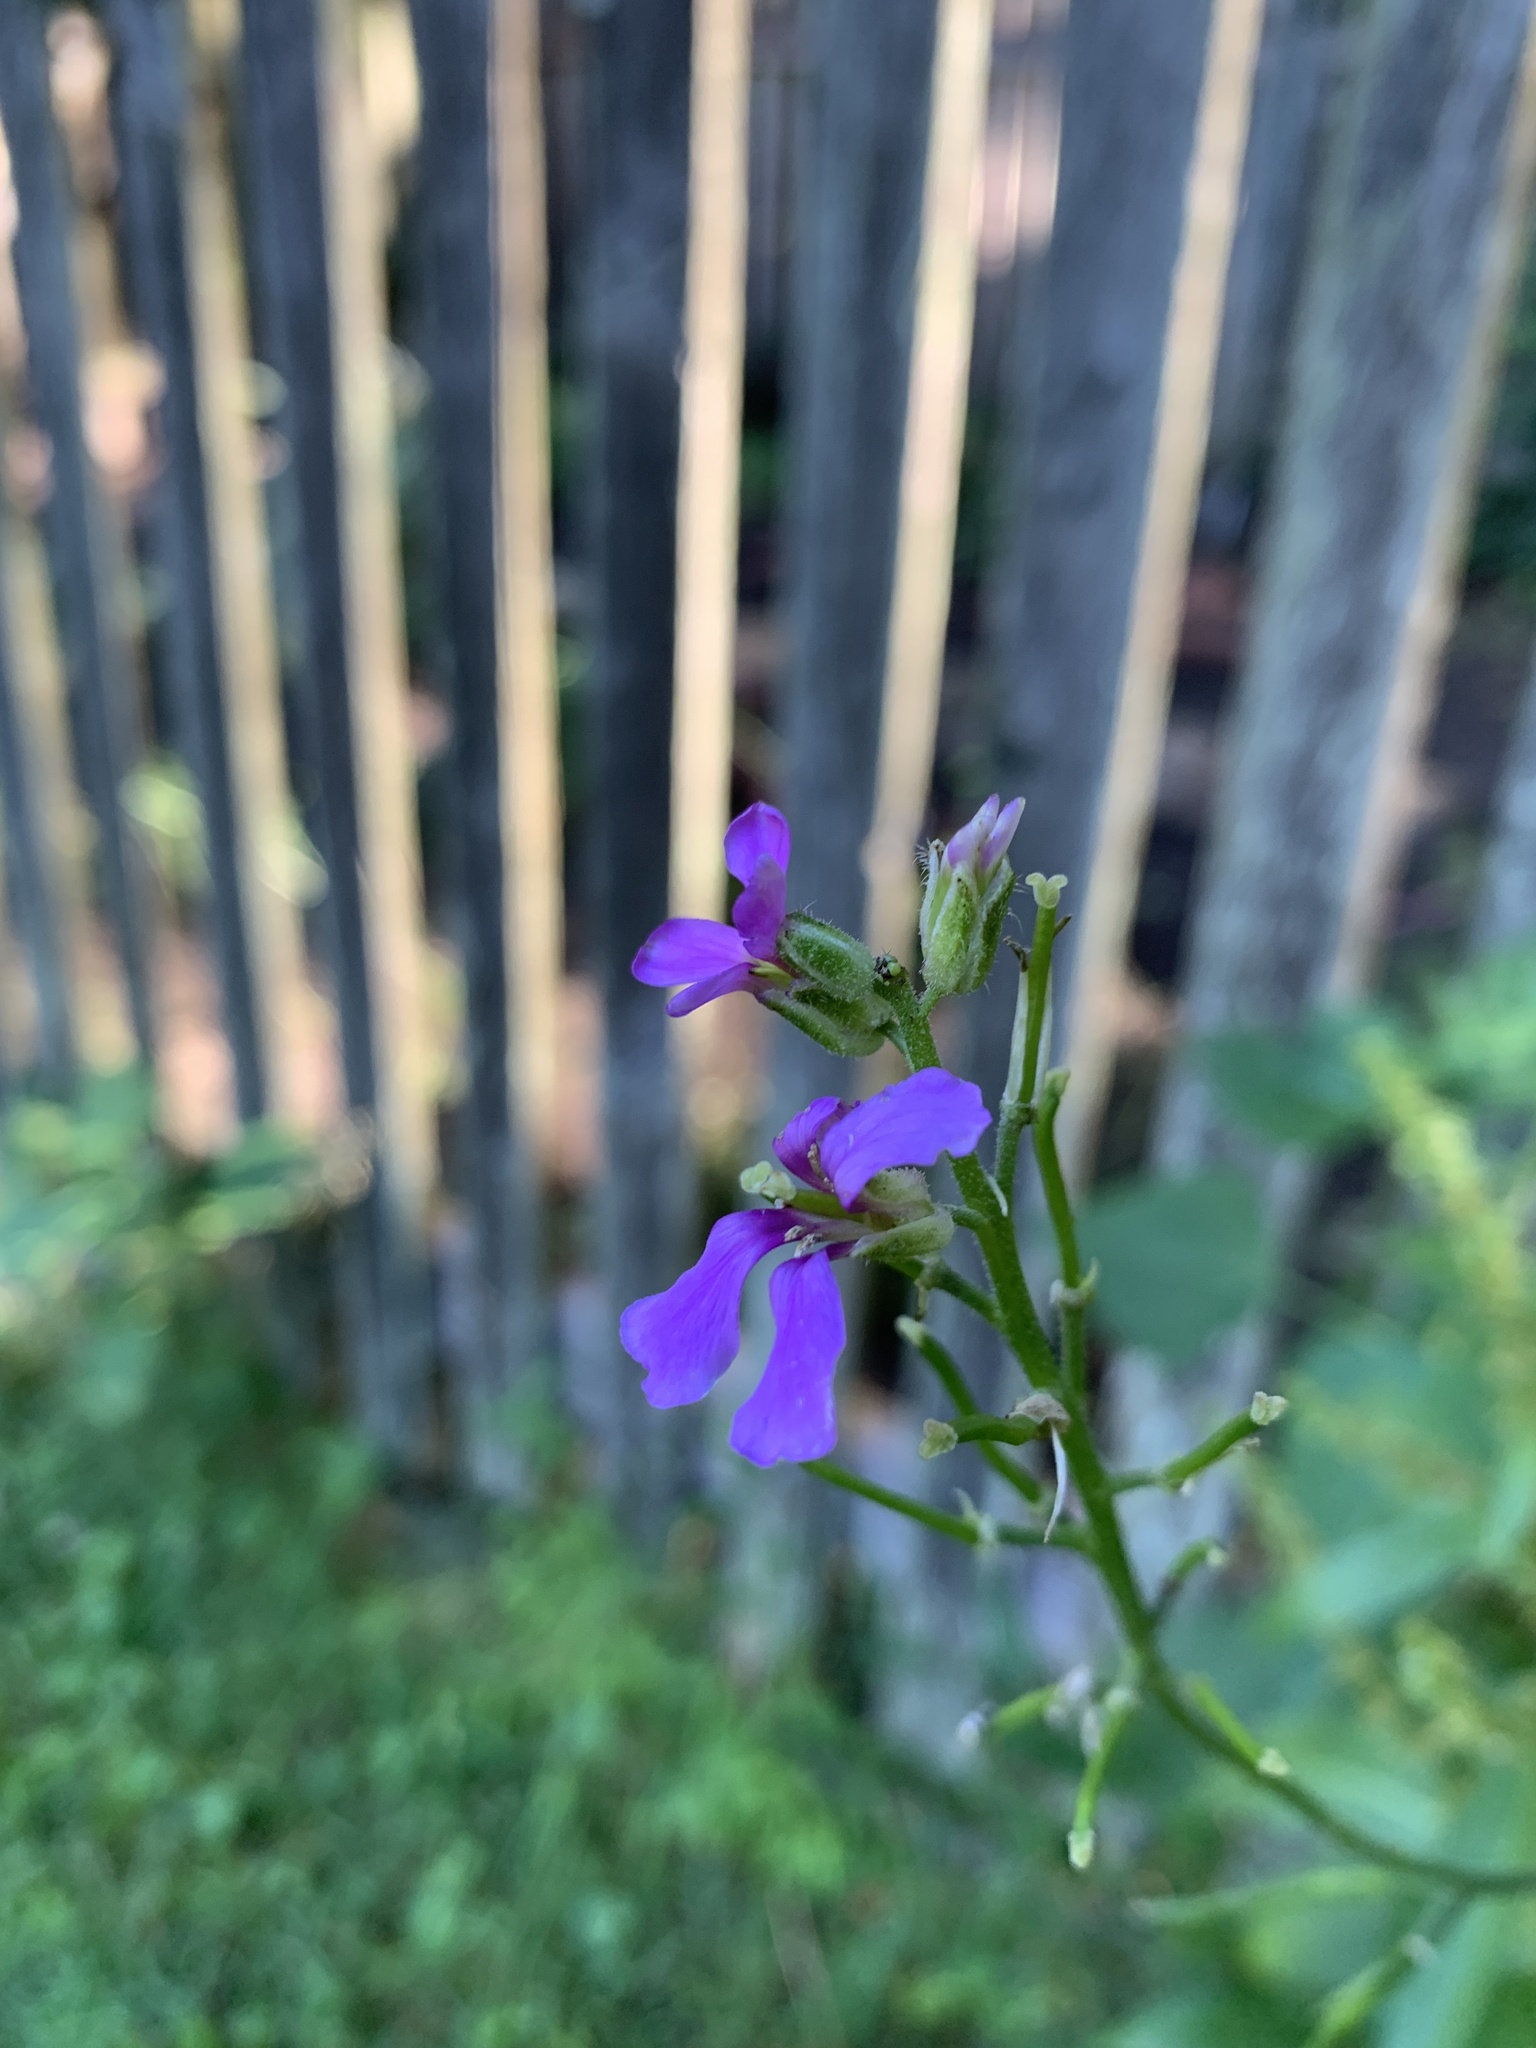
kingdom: Plantae
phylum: Tracheophyta
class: Magnoliopsida
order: Brassicales
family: Brassicaceae
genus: Hesperis
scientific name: Hesperis matronalis
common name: Dame's-violet
